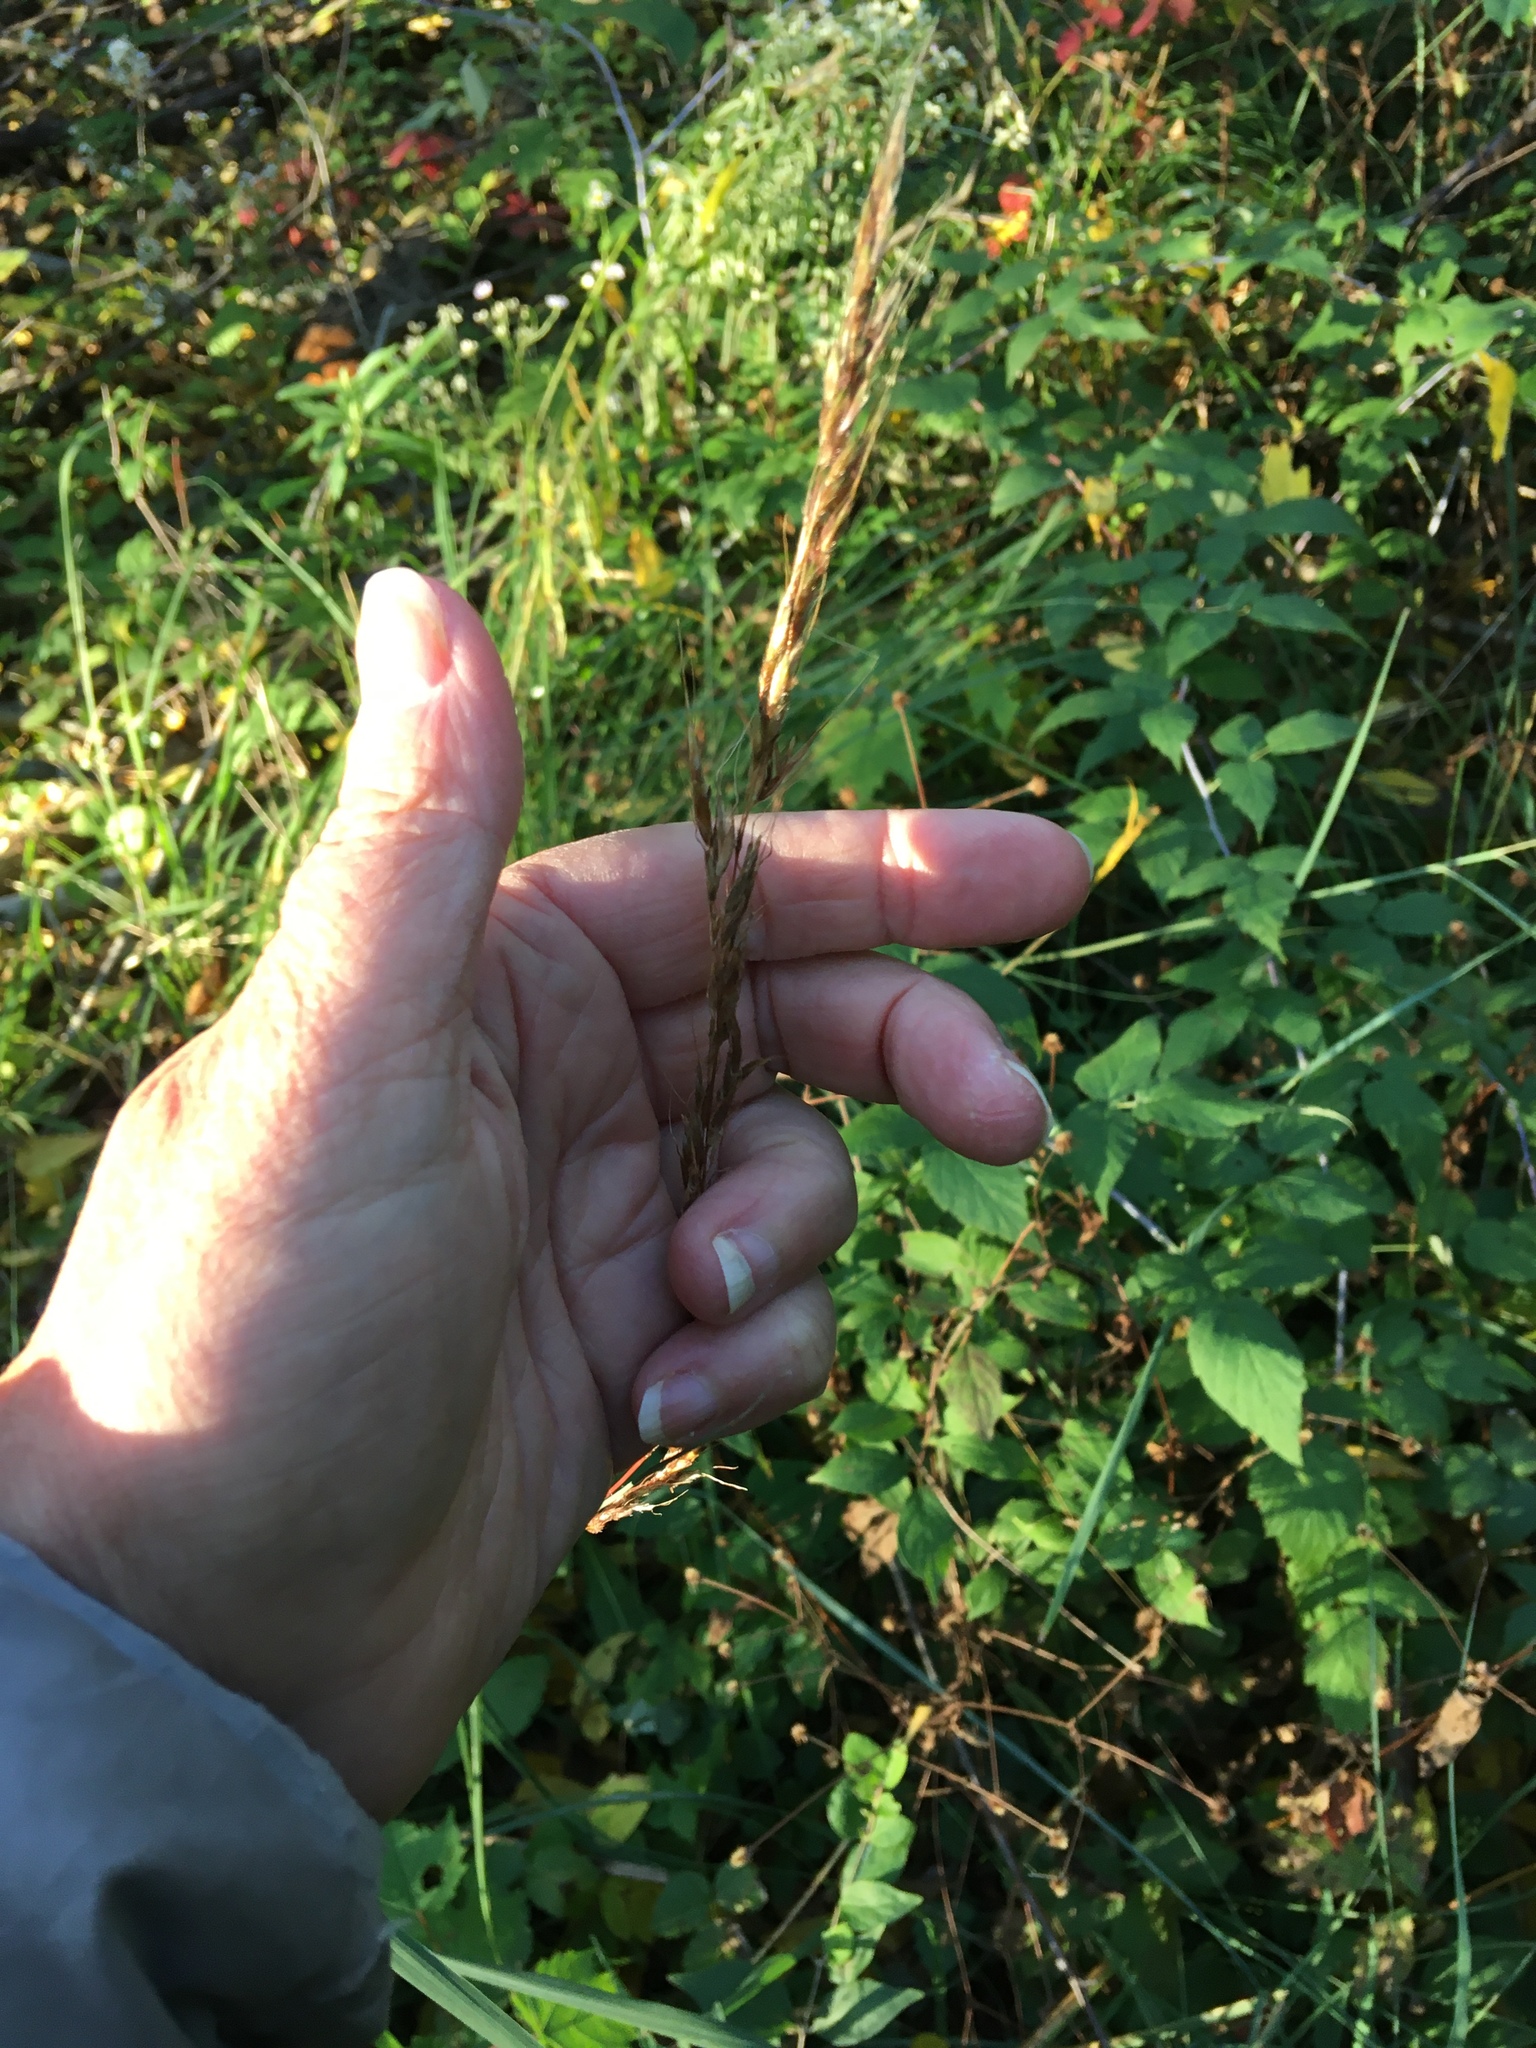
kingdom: Plantae
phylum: Tracheophyta
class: Liliopsida
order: Poales
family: Poaceae
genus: Sorghastrum
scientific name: Sorghastrum nutans
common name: Indian grass
